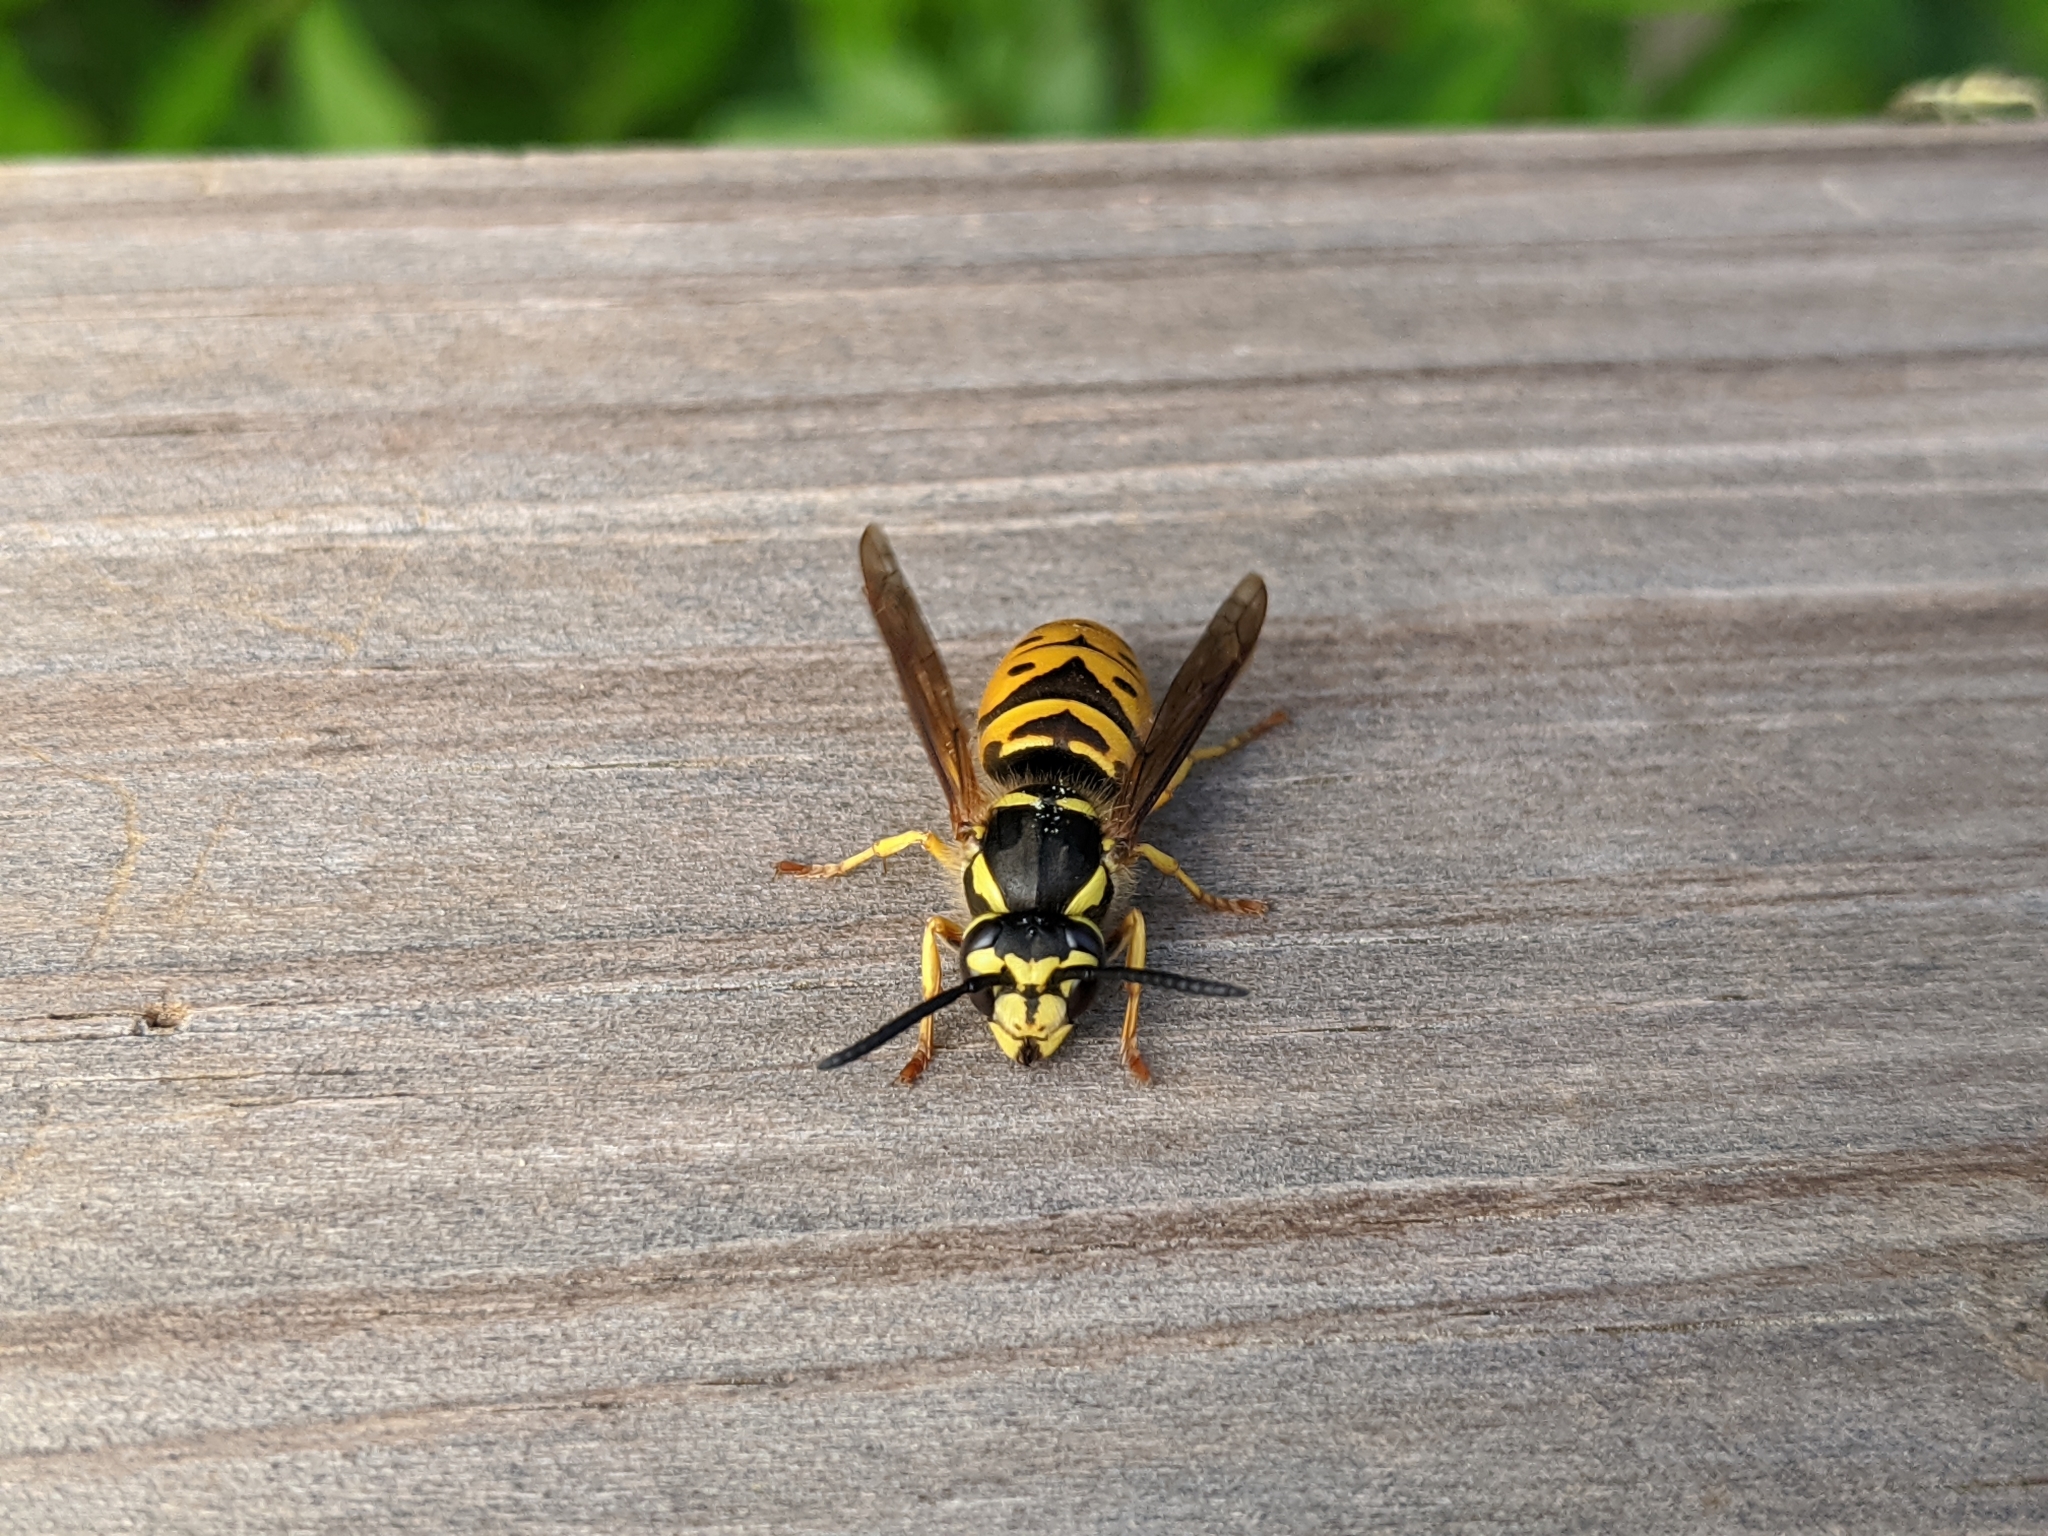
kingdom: Animalia
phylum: Arthropoda
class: Insecta
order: Hymenoptera
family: Vespidae
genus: Vespula
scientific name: Vespula maculifrons
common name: Eastern yellowjacket
